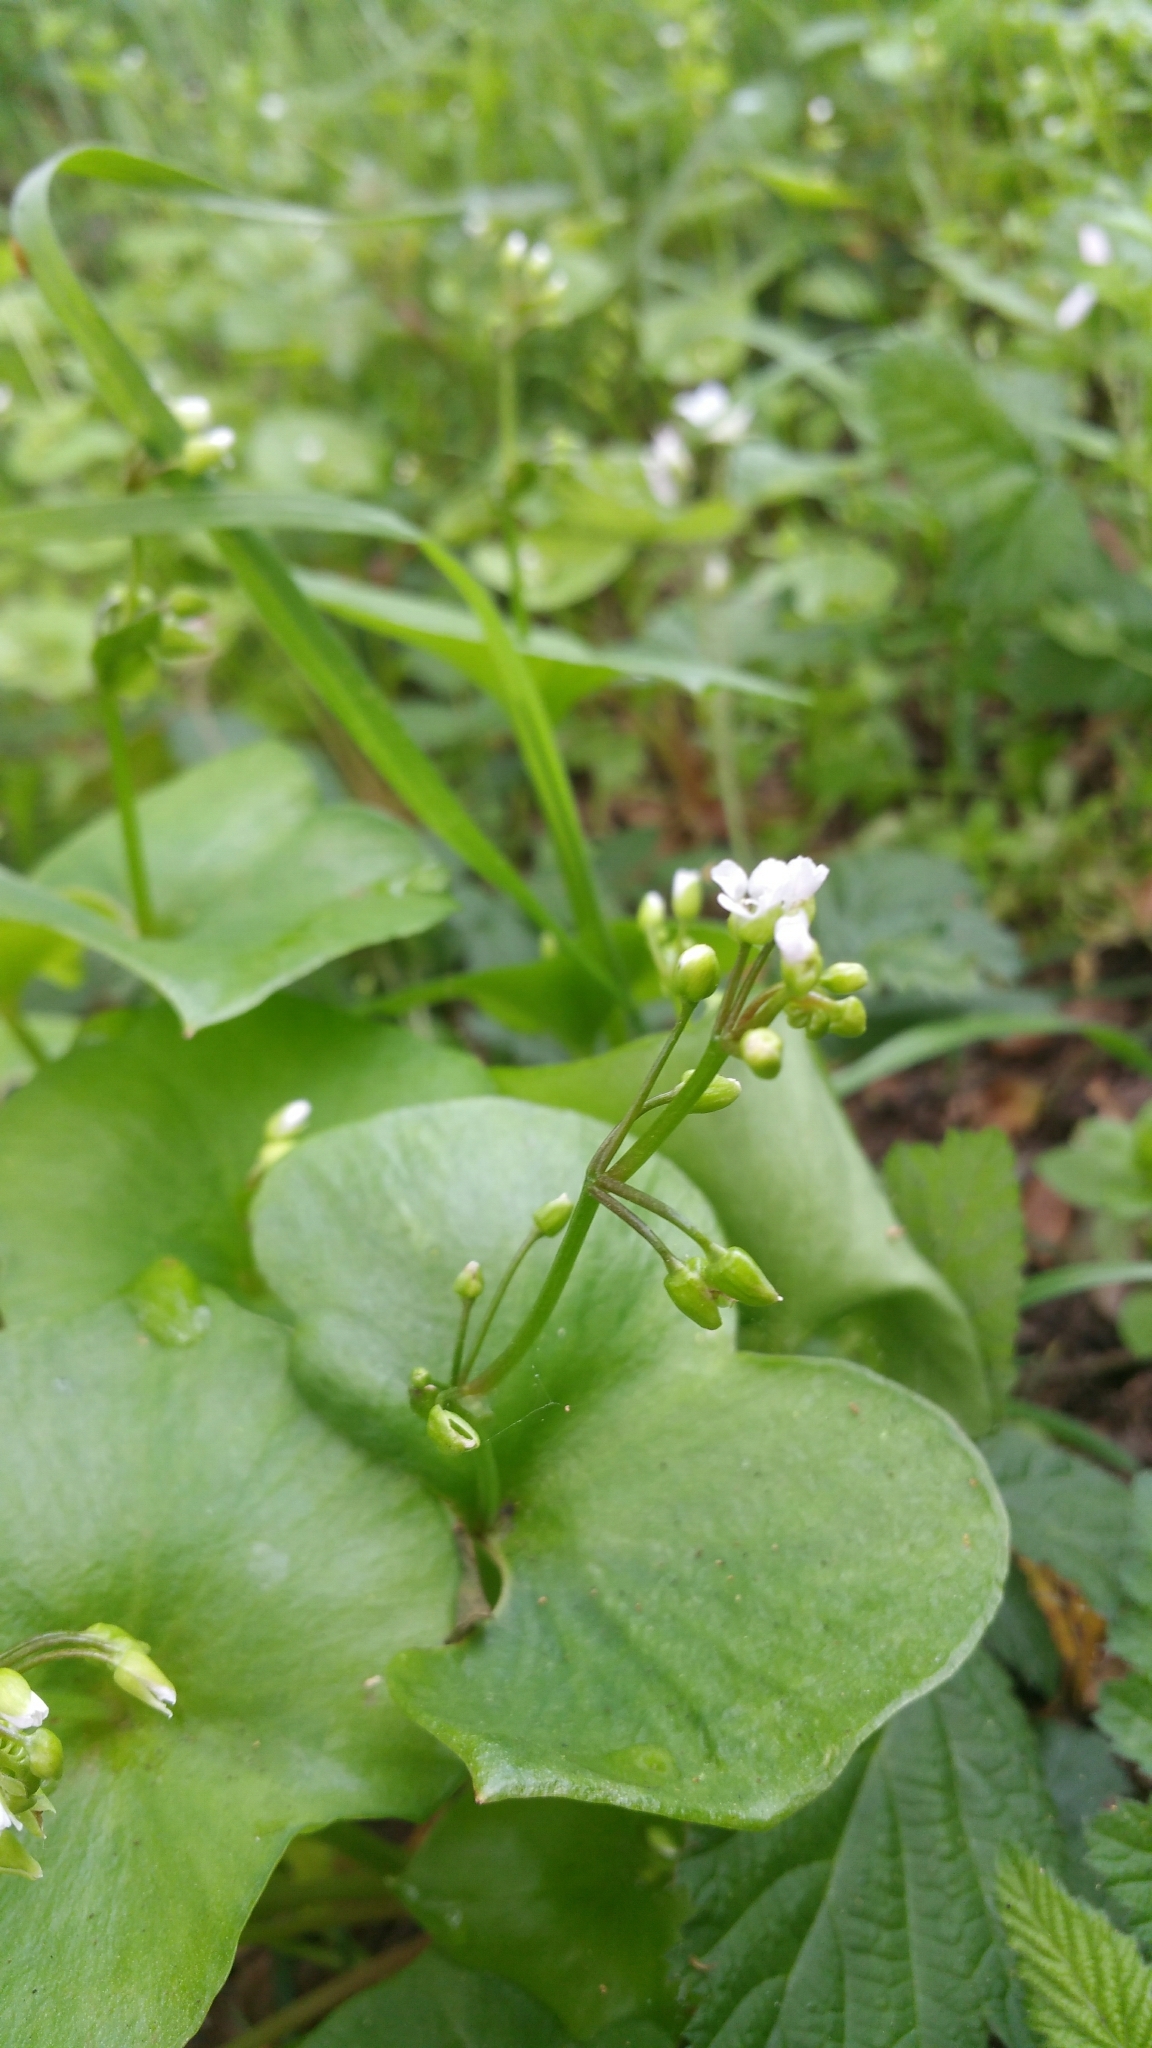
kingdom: Plantae
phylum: Tracheophyta
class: Magnoliopsida
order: Caryophyllales
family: Montiaceae
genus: Claytonia
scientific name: Claytonia perfoliata
